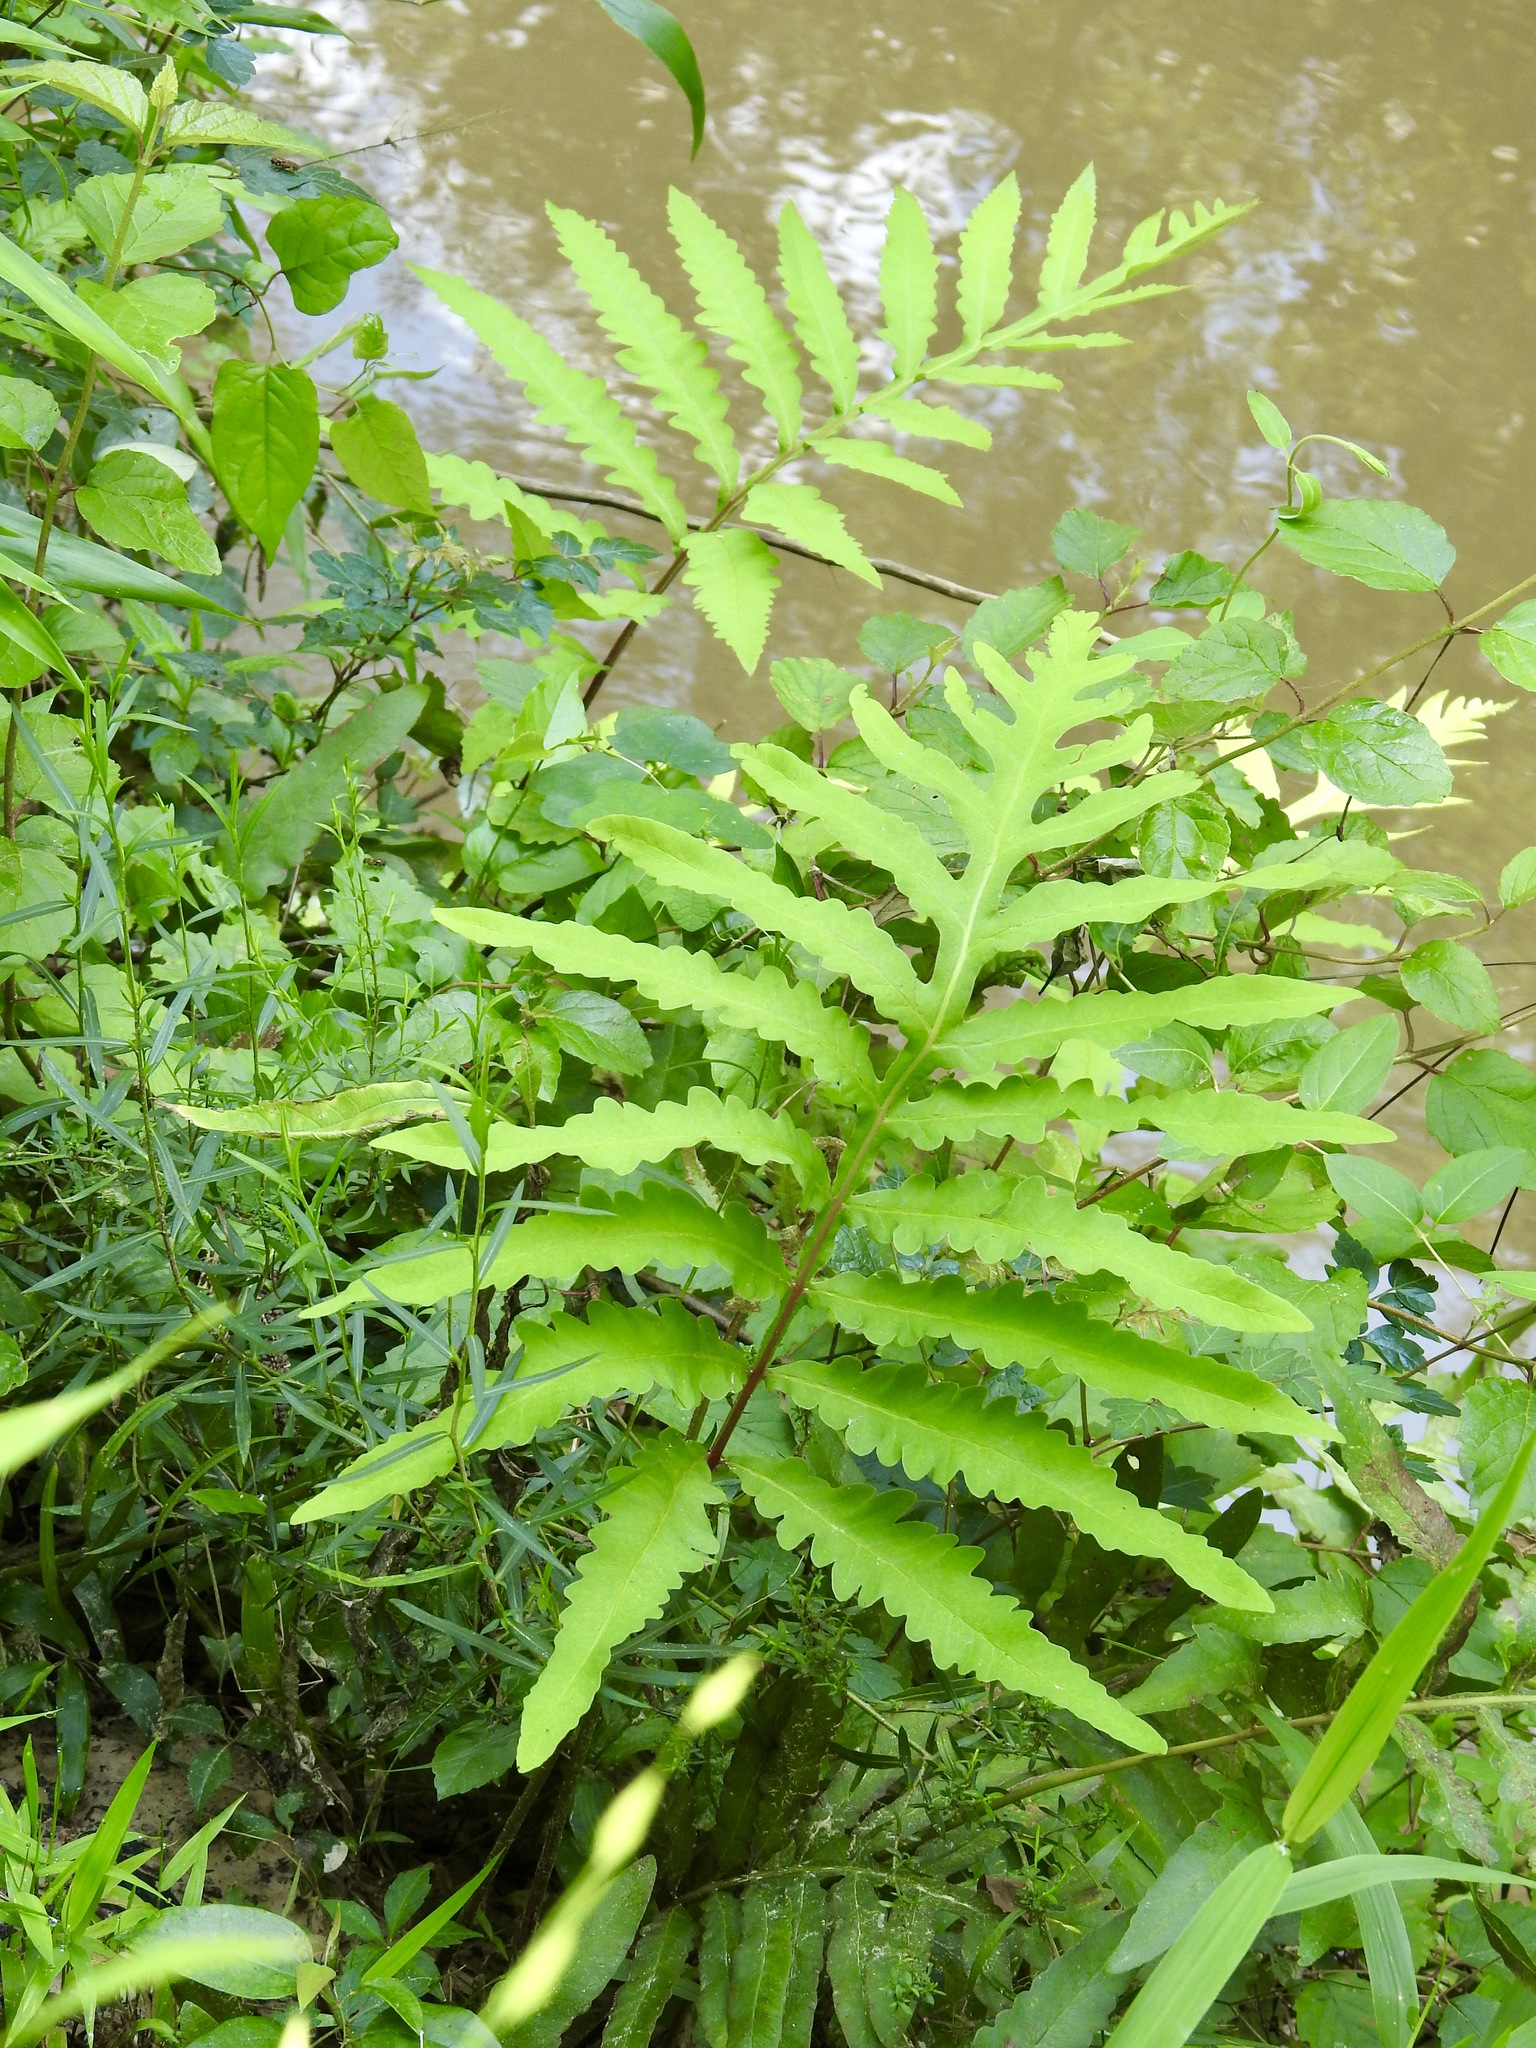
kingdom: Plantae
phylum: Tracheophyta
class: Polypodiopsida
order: Polypodiales
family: Onocleaceae
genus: Onoclea
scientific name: Onoclea sensibilis
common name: Sensitive fern
